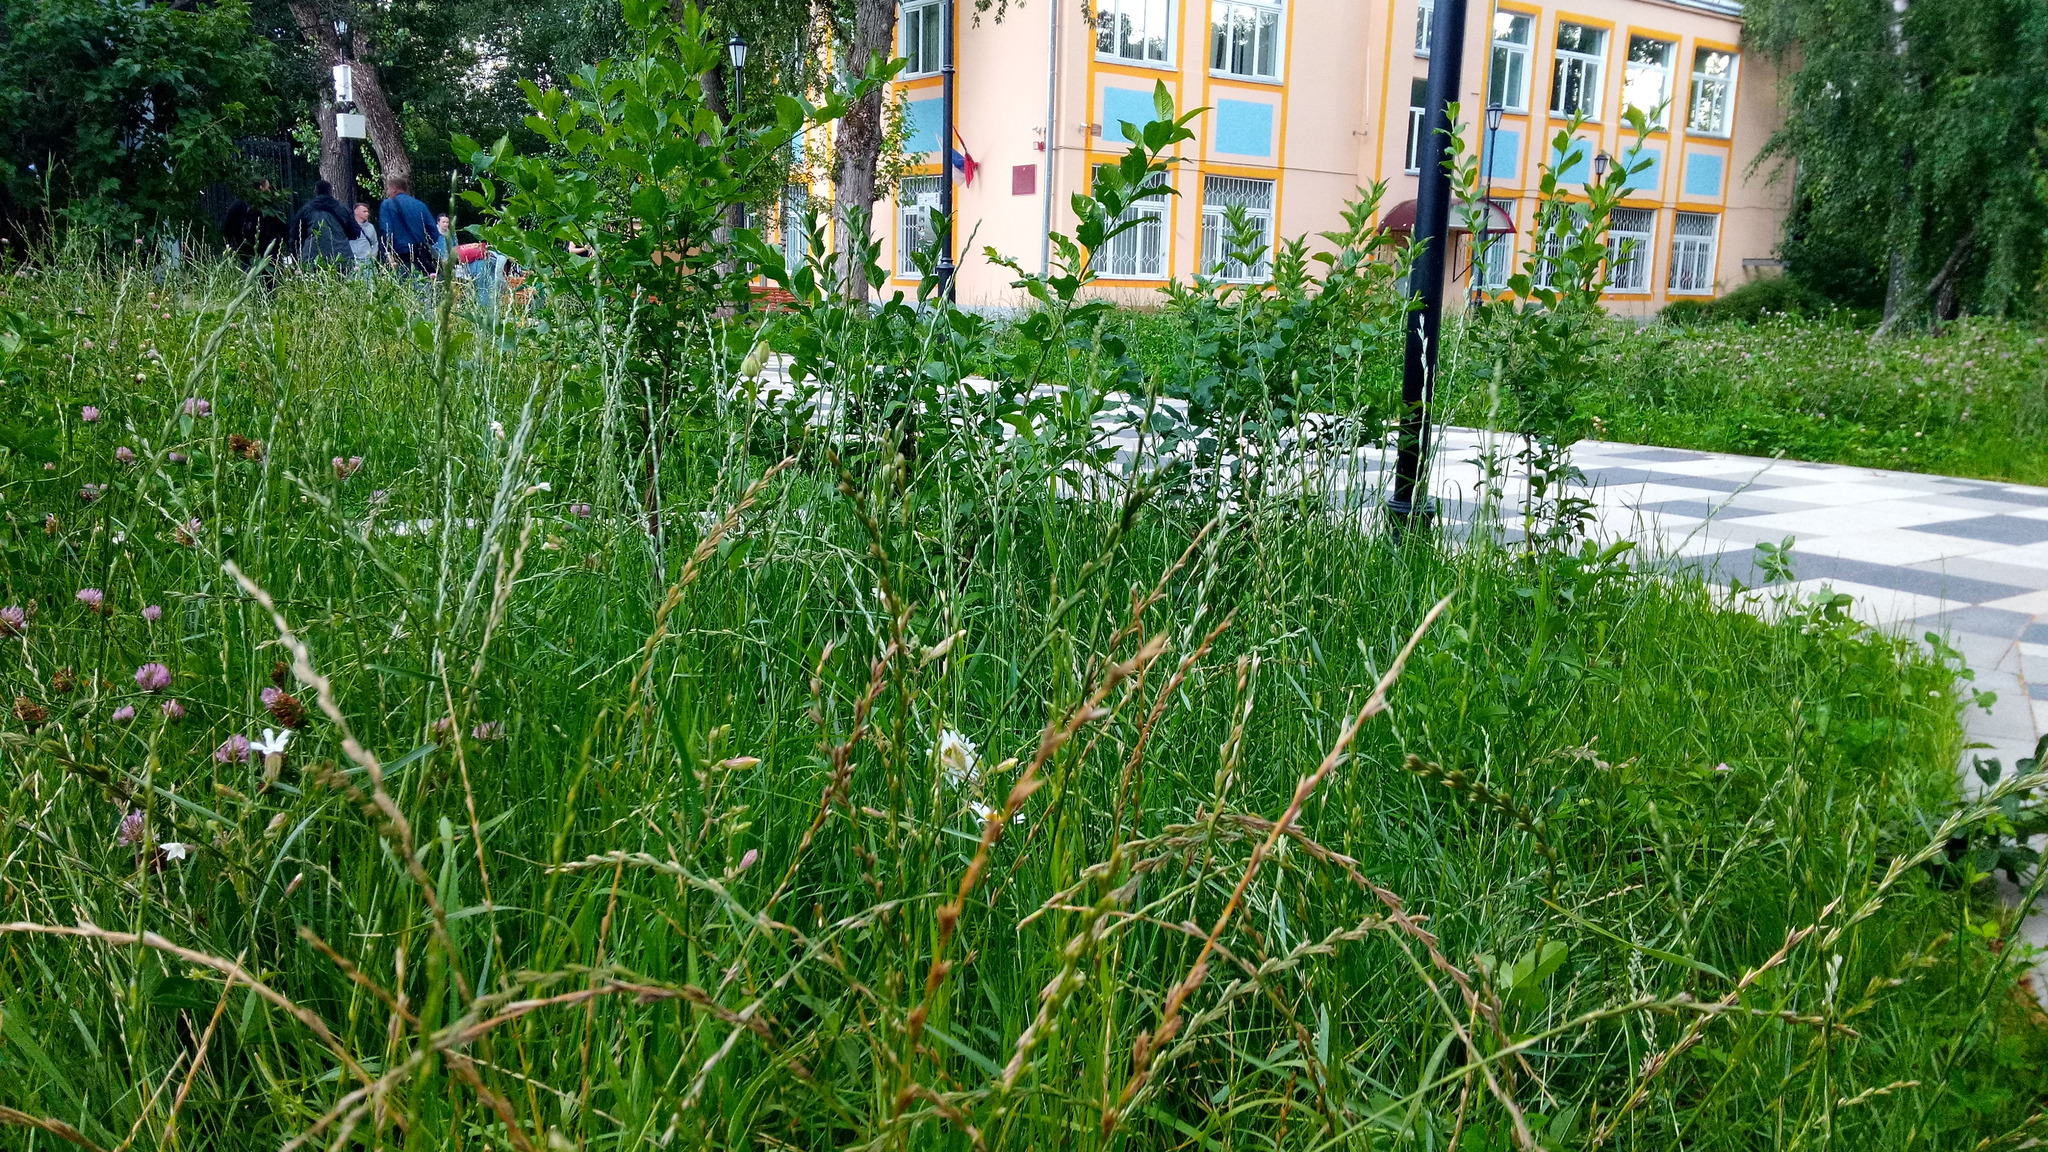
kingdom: Plantae
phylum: Tracheophyta
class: Magnoliopsida
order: Asterales
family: Asteraceae
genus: Leucanthemum
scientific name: Leucanthemum vulgare
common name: Oxeye daisy
